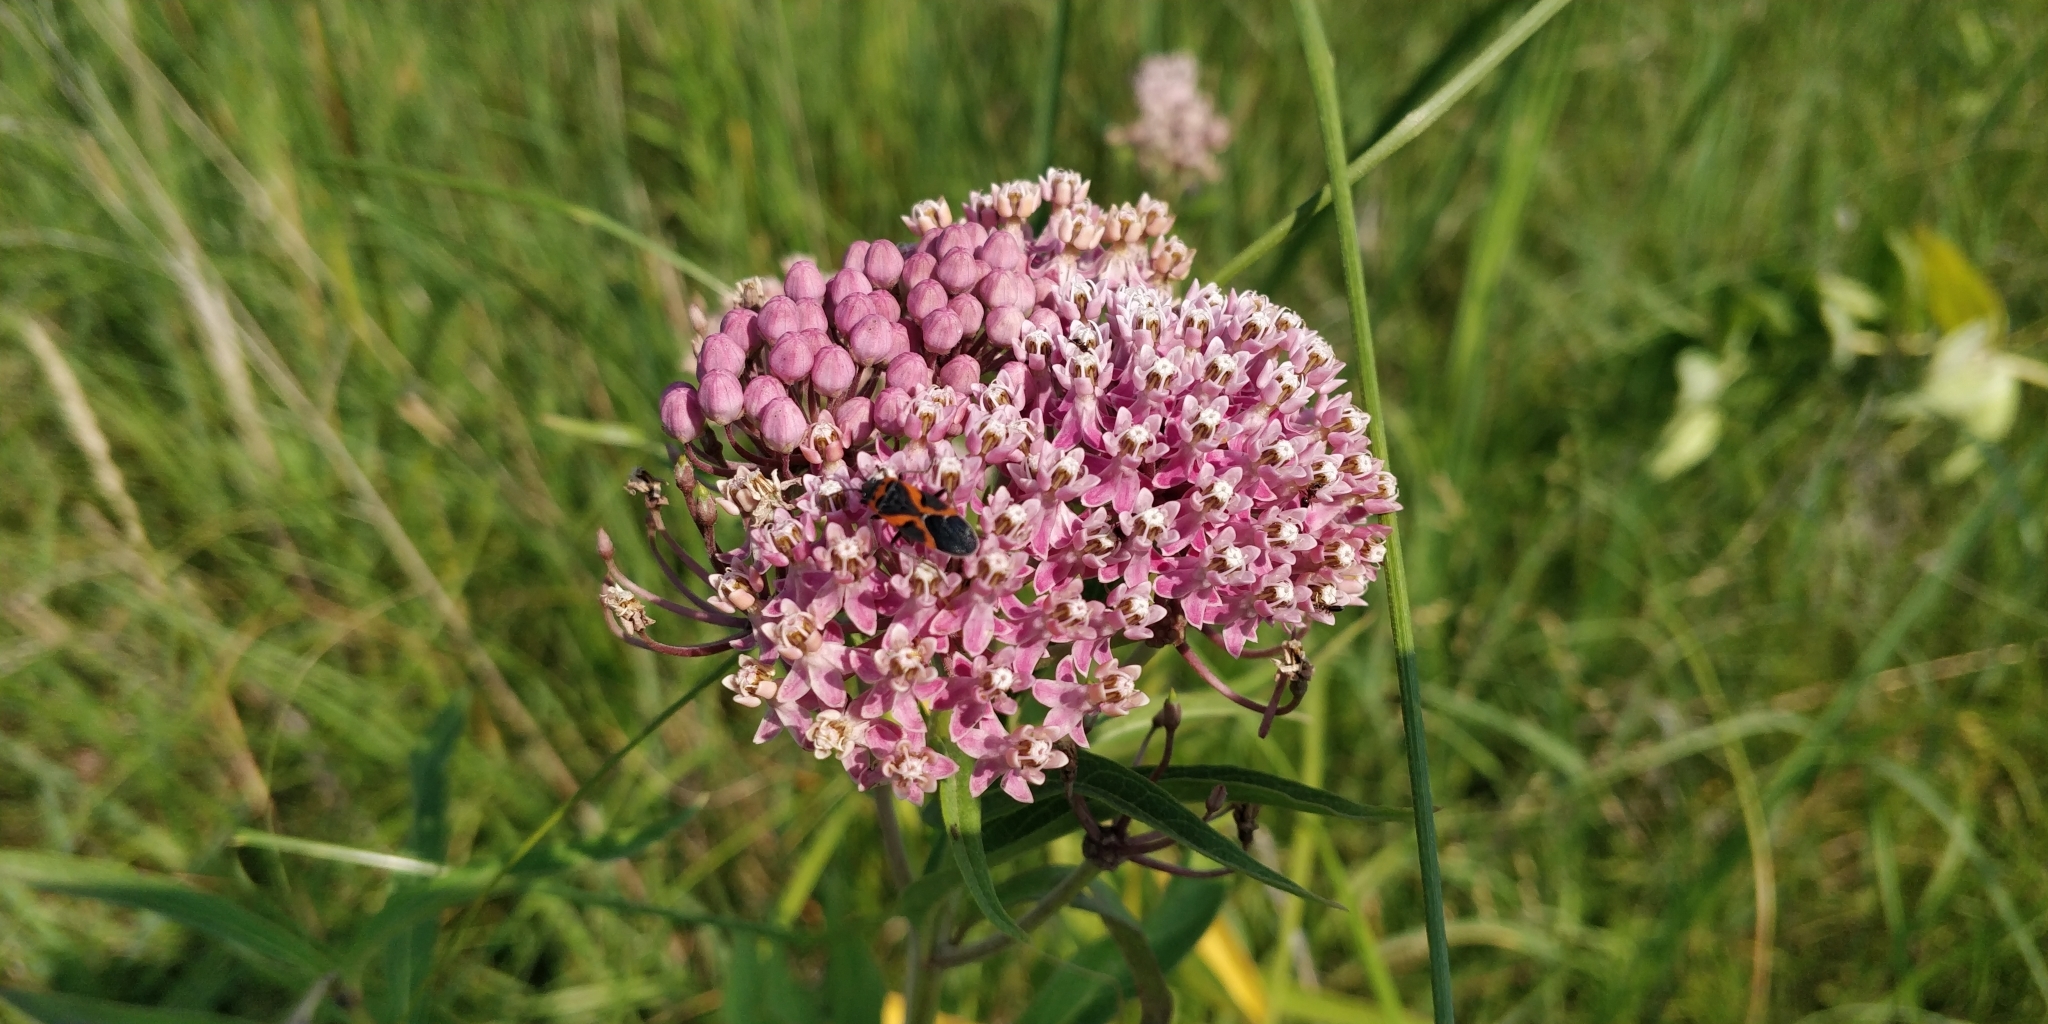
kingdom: Plantae
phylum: Tracheophyta
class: Magnoliopsida
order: Gentianales
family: Apocynaceae
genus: Asclepias
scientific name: Asclepias incarnata
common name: Swamp milkweed
